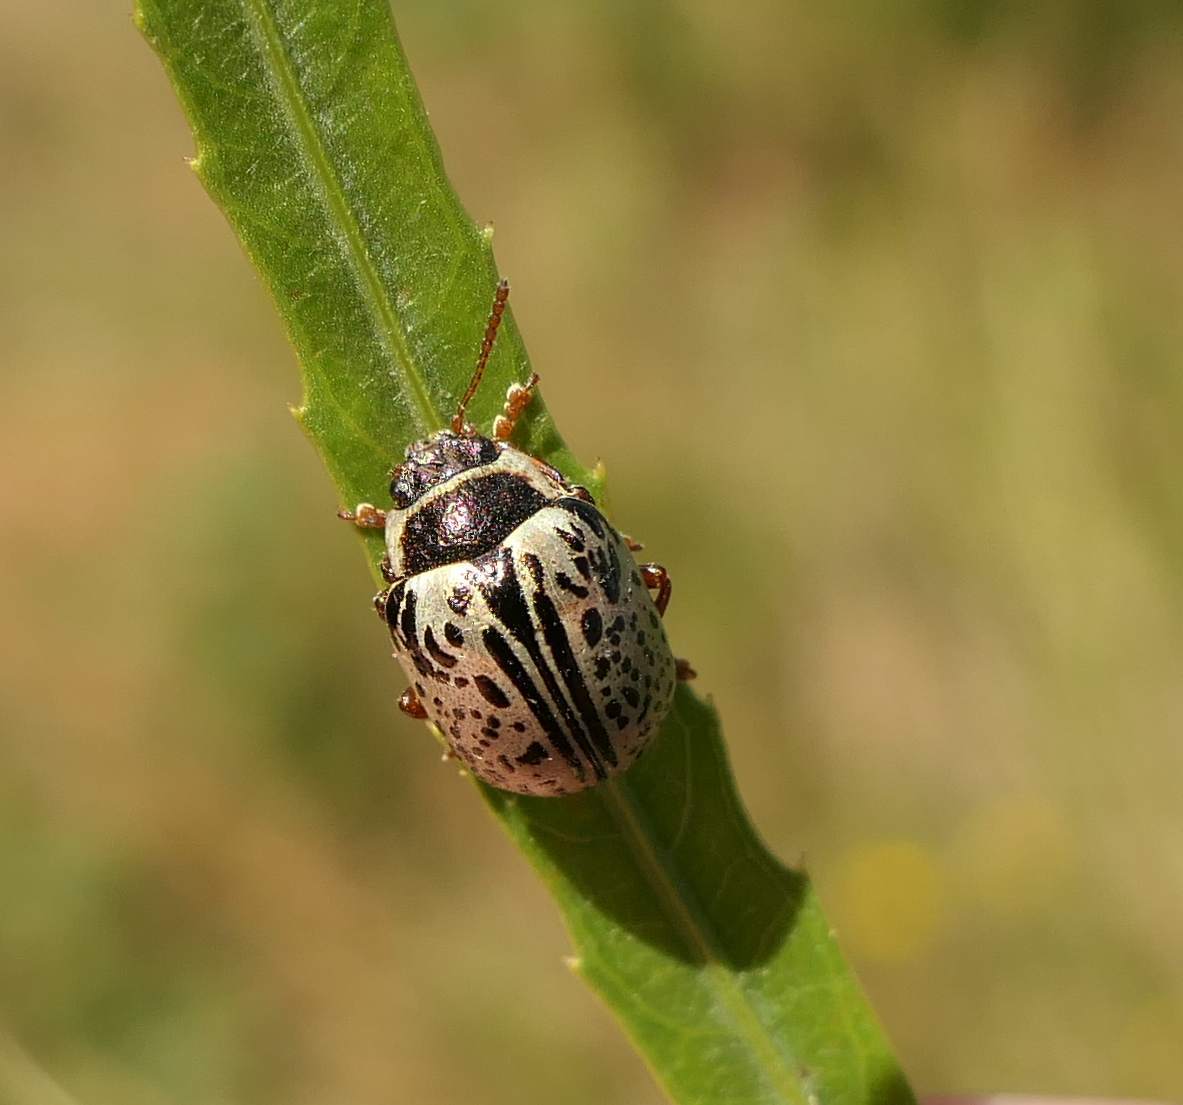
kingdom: Animalia
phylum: Arthropoda
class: Insecta
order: Coleoptera
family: Chrysomelidae
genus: Calligrapha
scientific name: Calligrapha multipunctata
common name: Common willow calligrapher beetle
